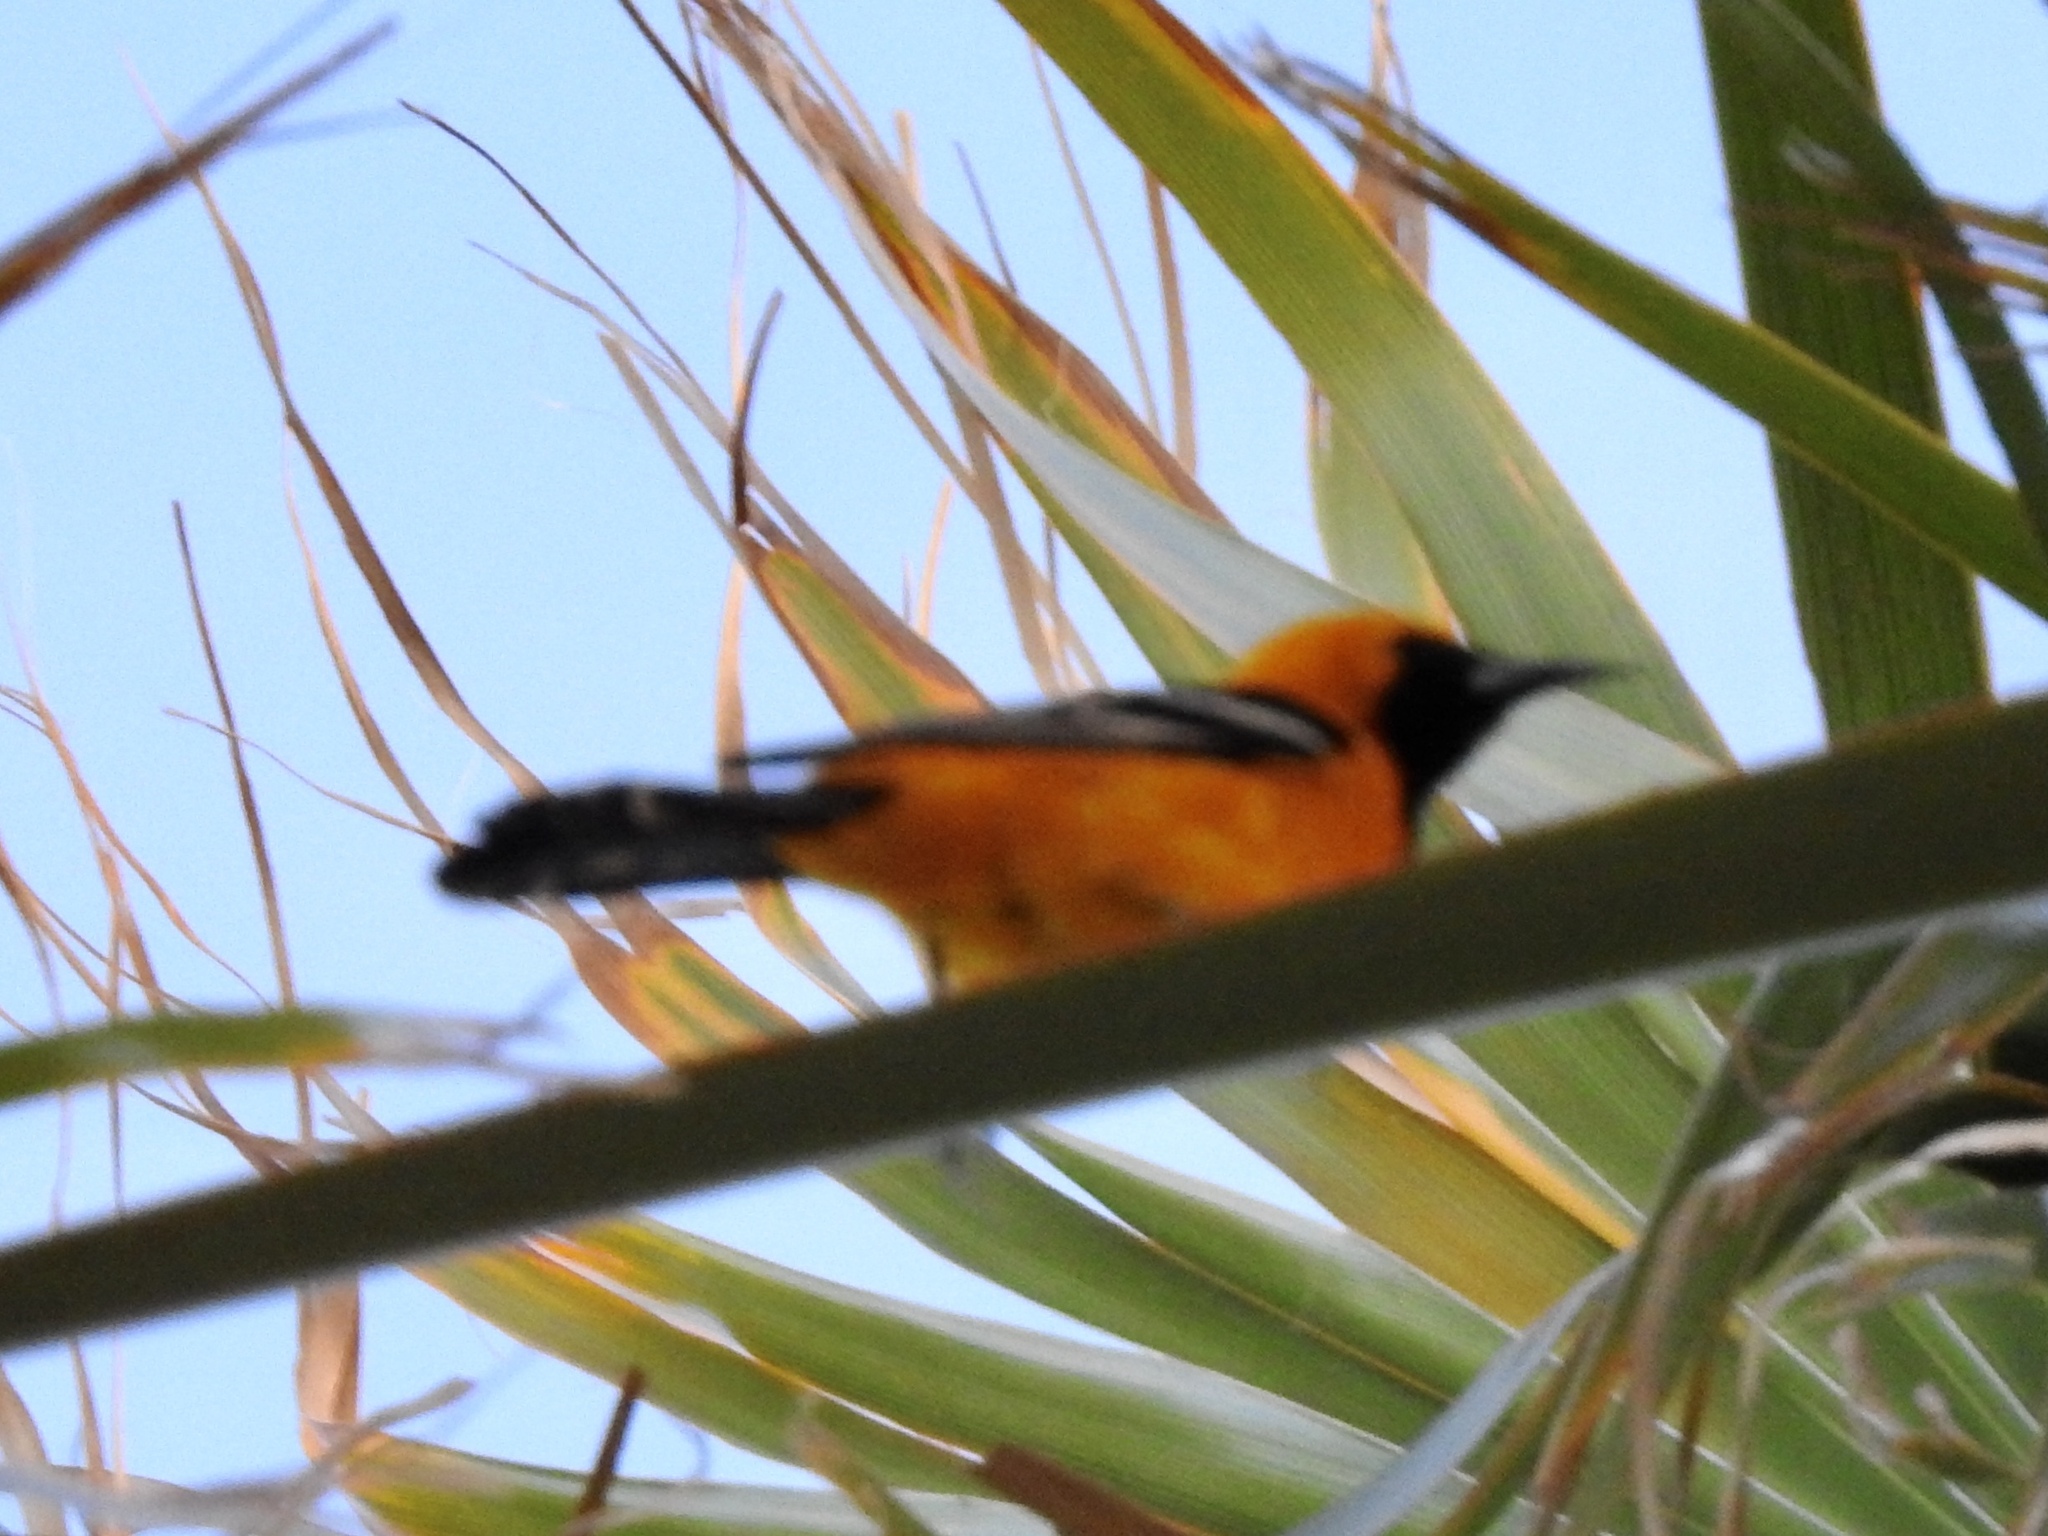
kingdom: Animalia
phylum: Chordata
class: Aves
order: Passeriformes
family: Icteridae
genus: Icterus
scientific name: Icterus cucullatus
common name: Hooded oriole
